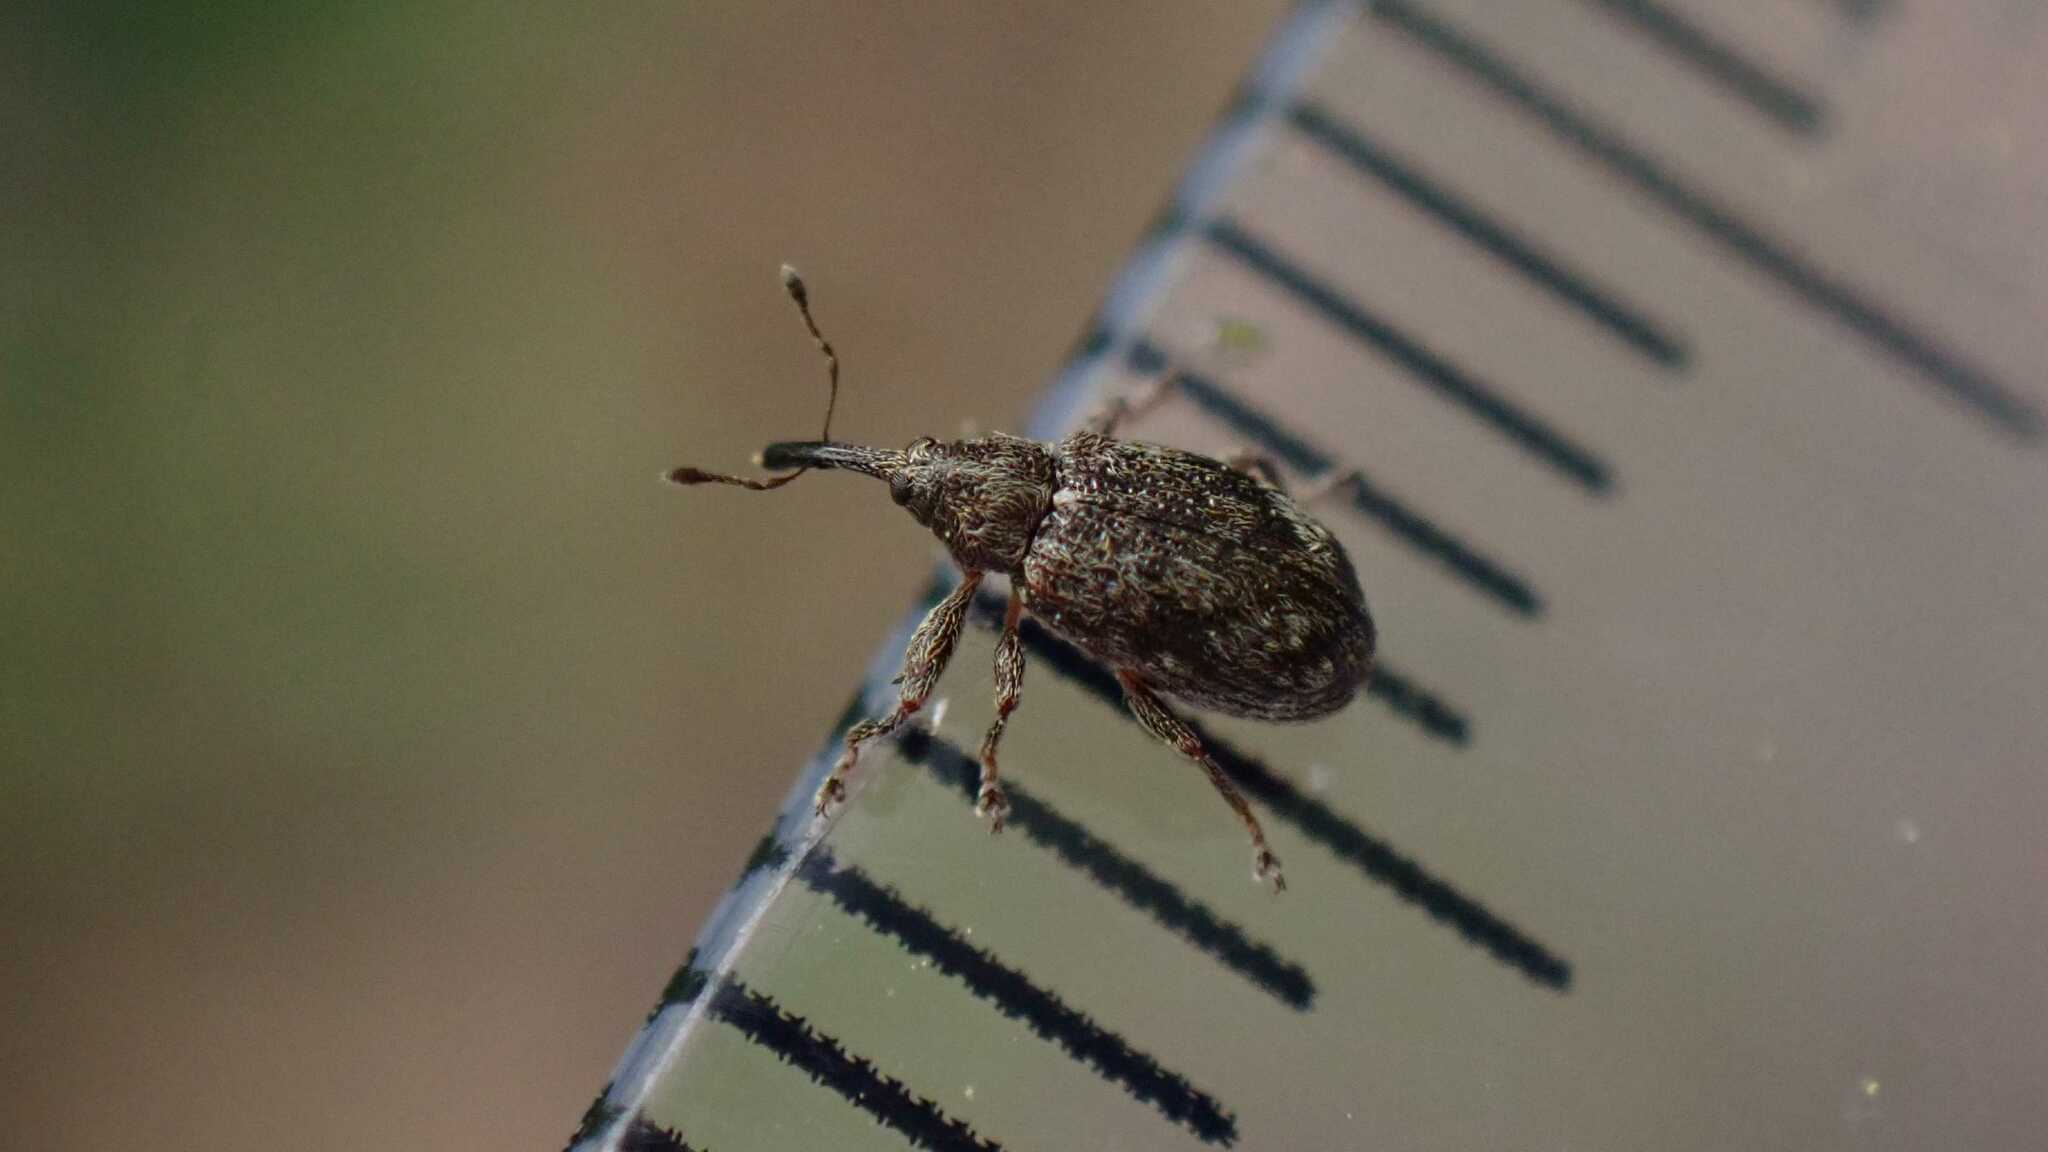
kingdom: Animalia
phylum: Arthropoda
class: Insecta
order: Coleoptera
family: Curculionidae
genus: Anthonomus
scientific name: Anthonomus humeralis
